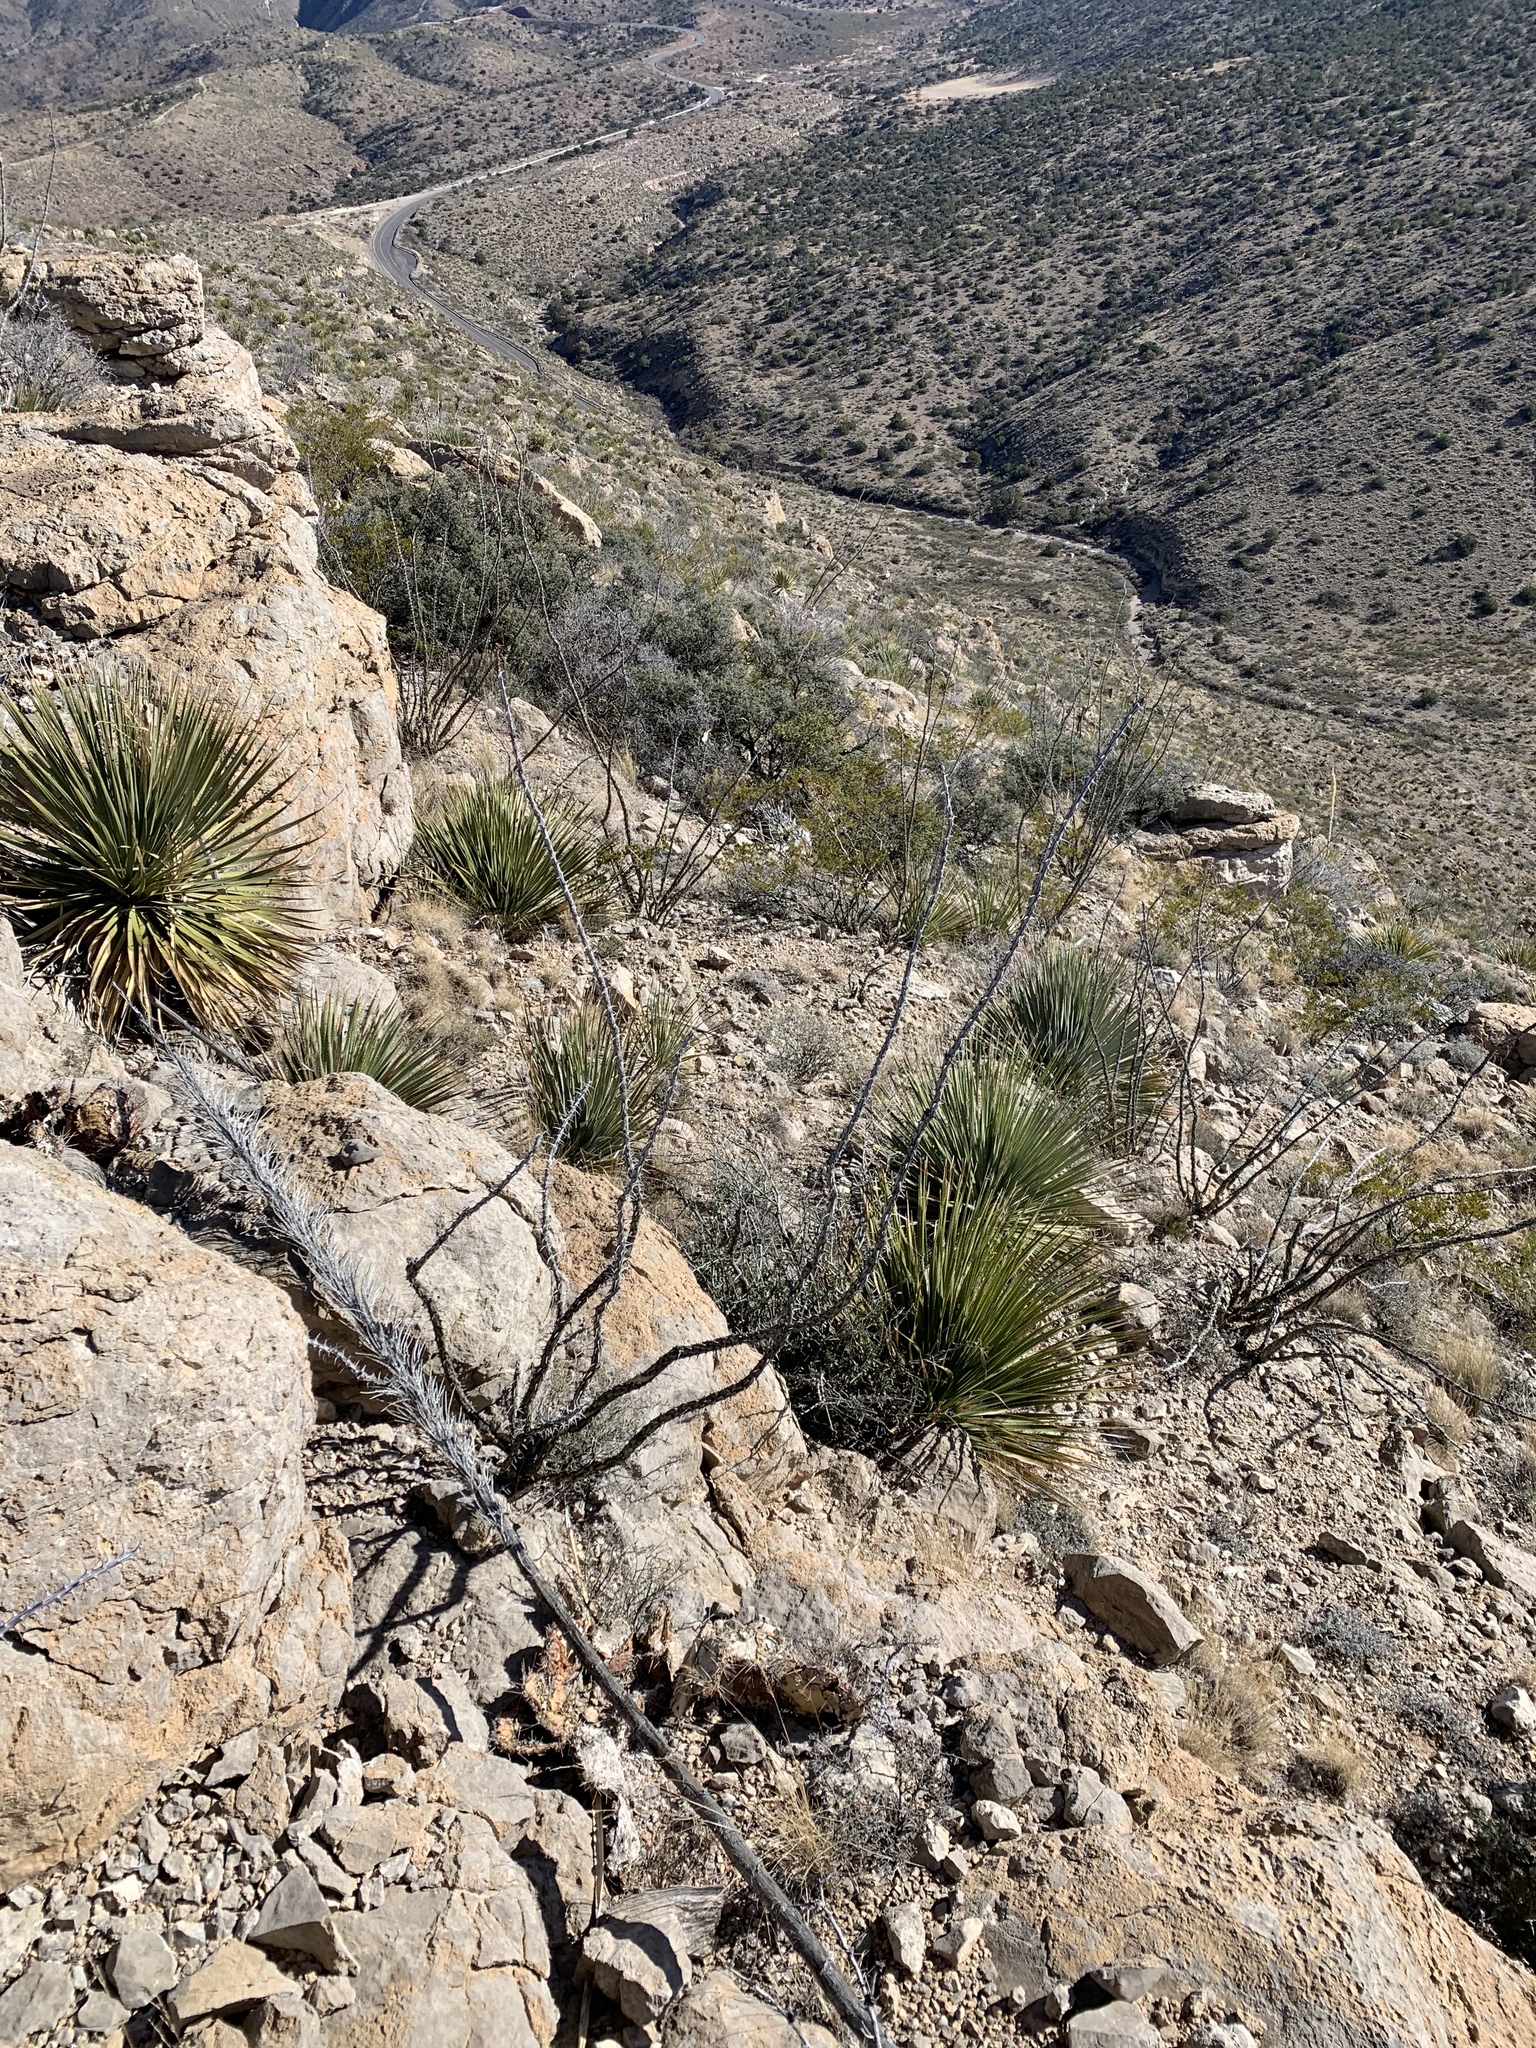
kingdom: Plantae
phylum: Tracheophyta
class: Magnoliopsida
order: Ericales
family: Fouquieriaceae
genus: Fouquieria
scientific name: Fouquieria splendens
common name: Vine-cactus
